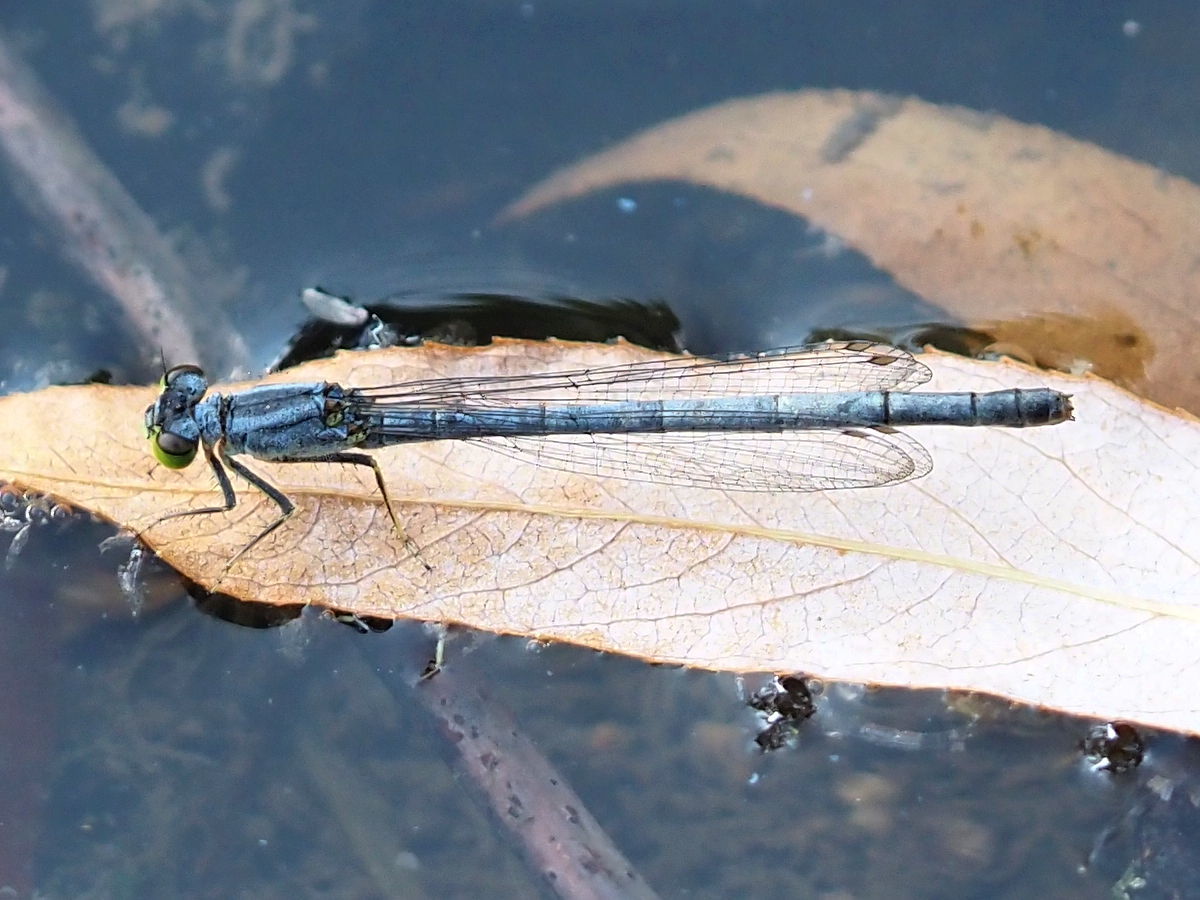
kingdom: Animalia
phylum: Arthropoda
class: Insecta
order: Odonata
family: Coenagrionidae
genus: Ischnura
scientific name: Ischnura verticalis
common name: Eastern forktail
